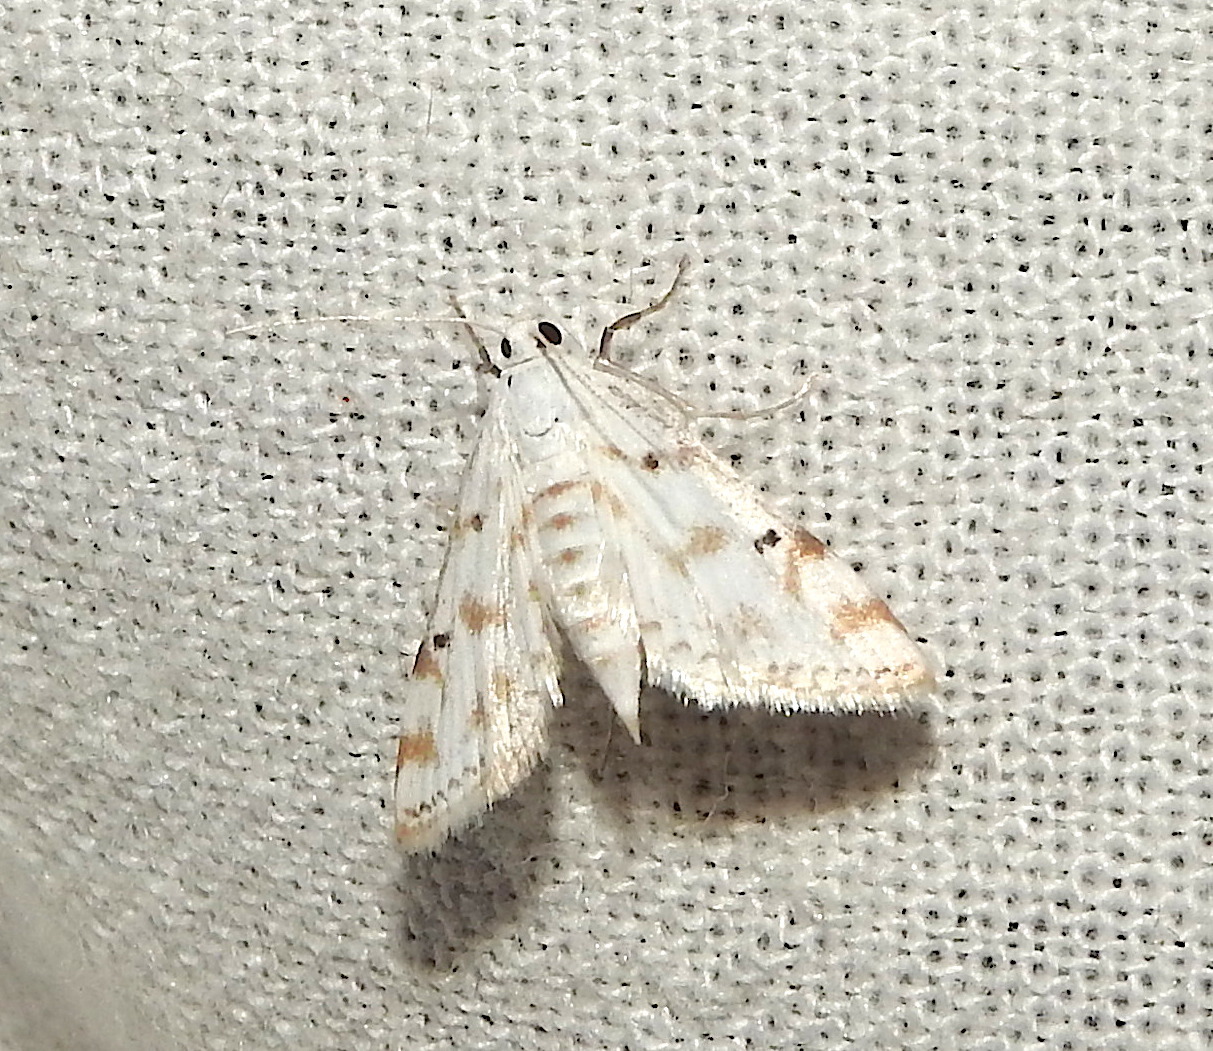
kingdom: Animalia
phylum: Arthropoda
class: Insecta
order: Lepidoptera
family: Crambidae
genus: Parapoynx
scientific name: Parapoynx stagnalis
